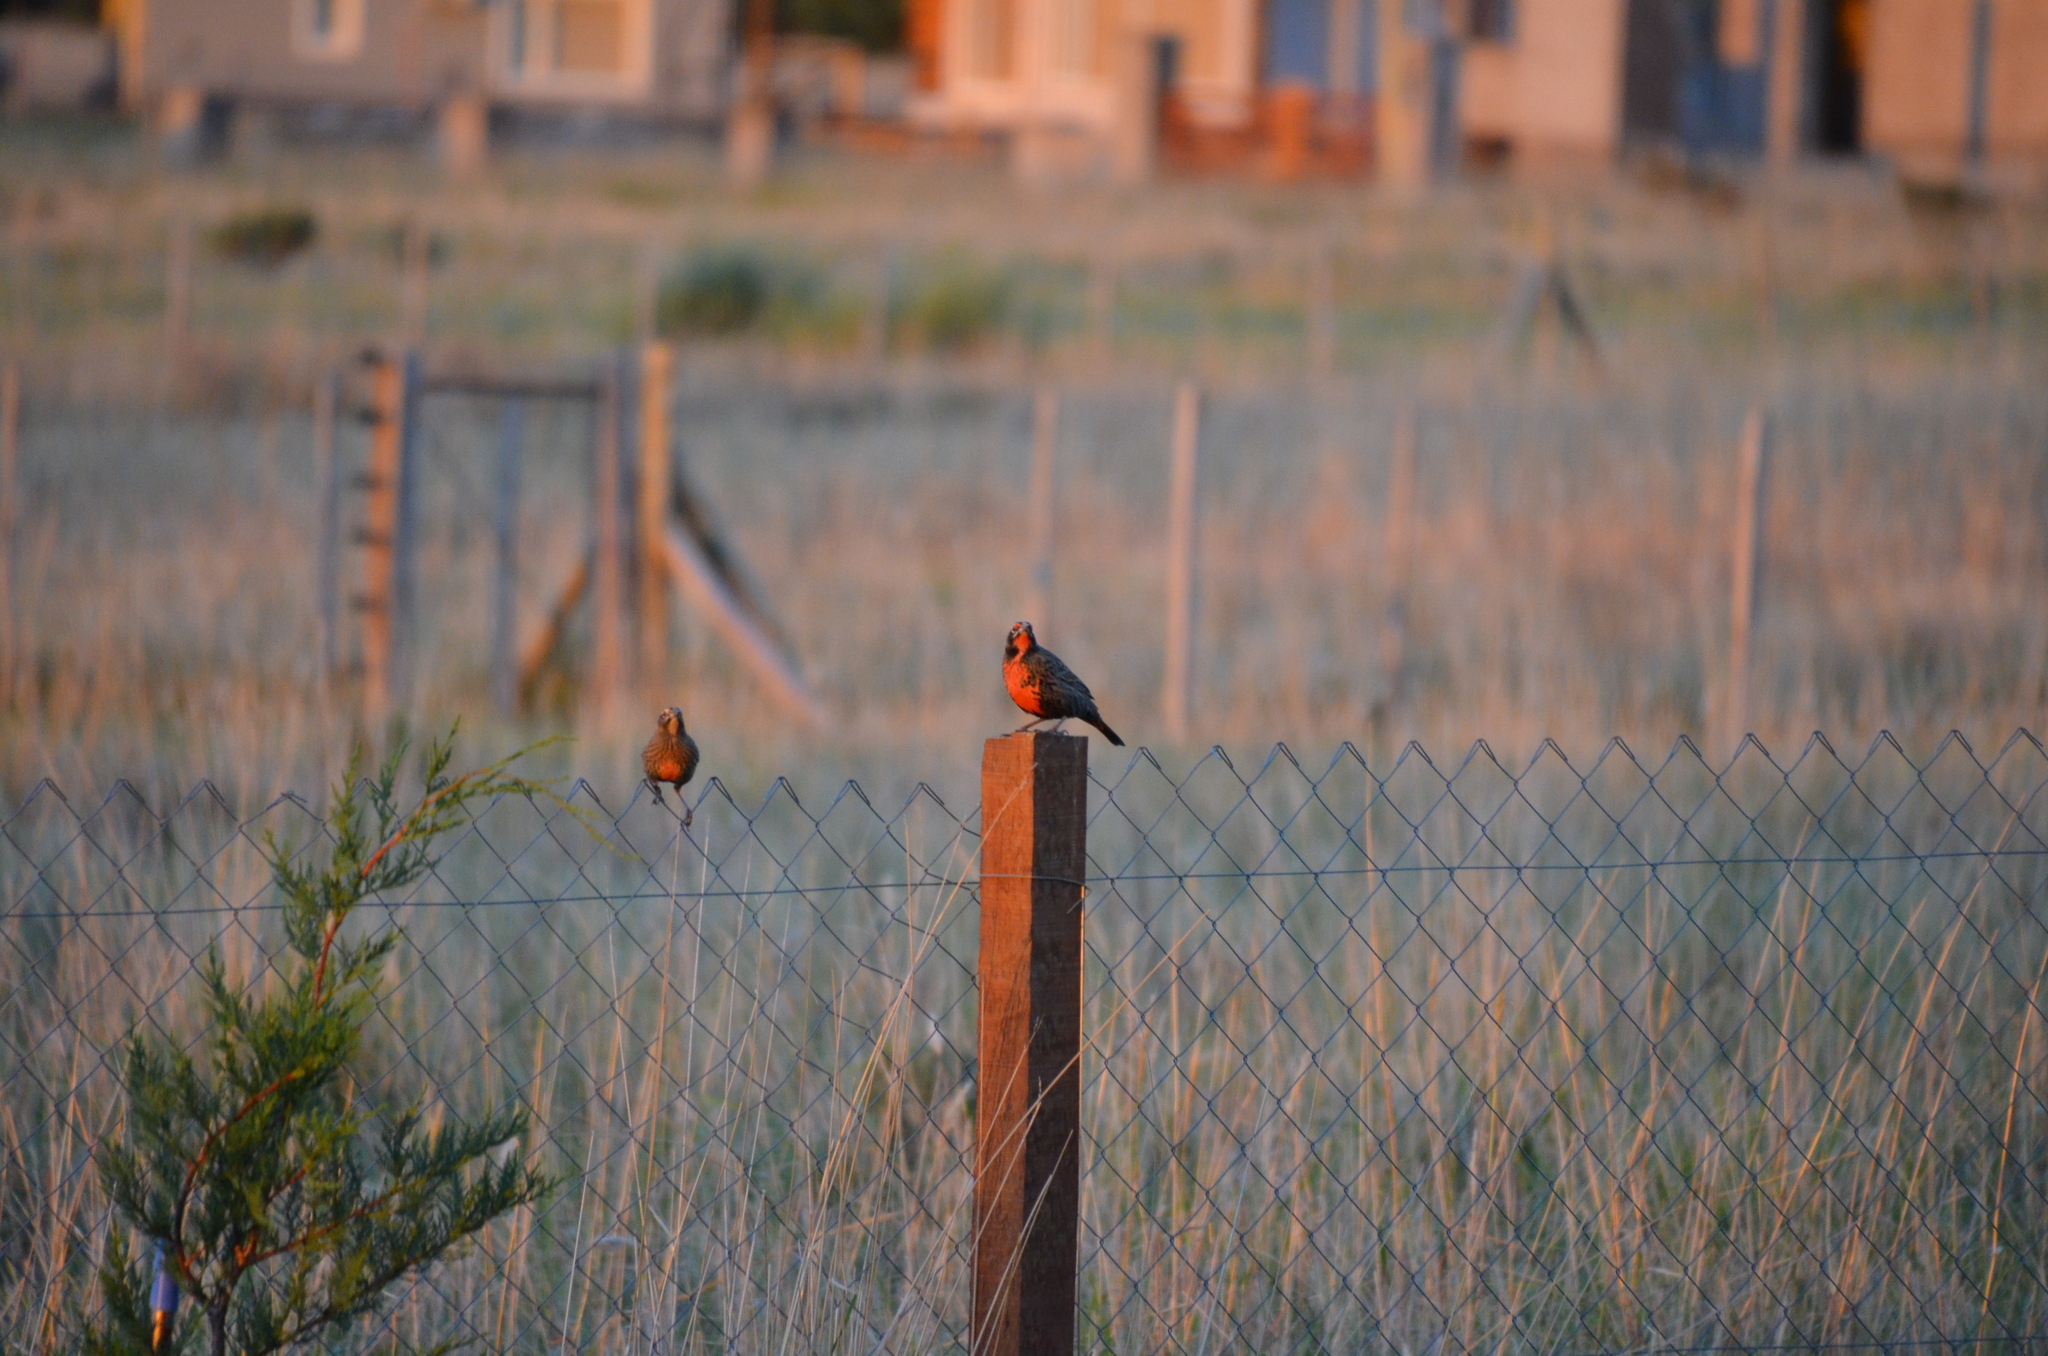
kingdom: Animalia
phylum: Chordata
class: Aves
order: Passeriformes
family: Icteridae
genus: Sturnella
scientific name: Sturnella loyca
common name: Long-tailed meadowlark
